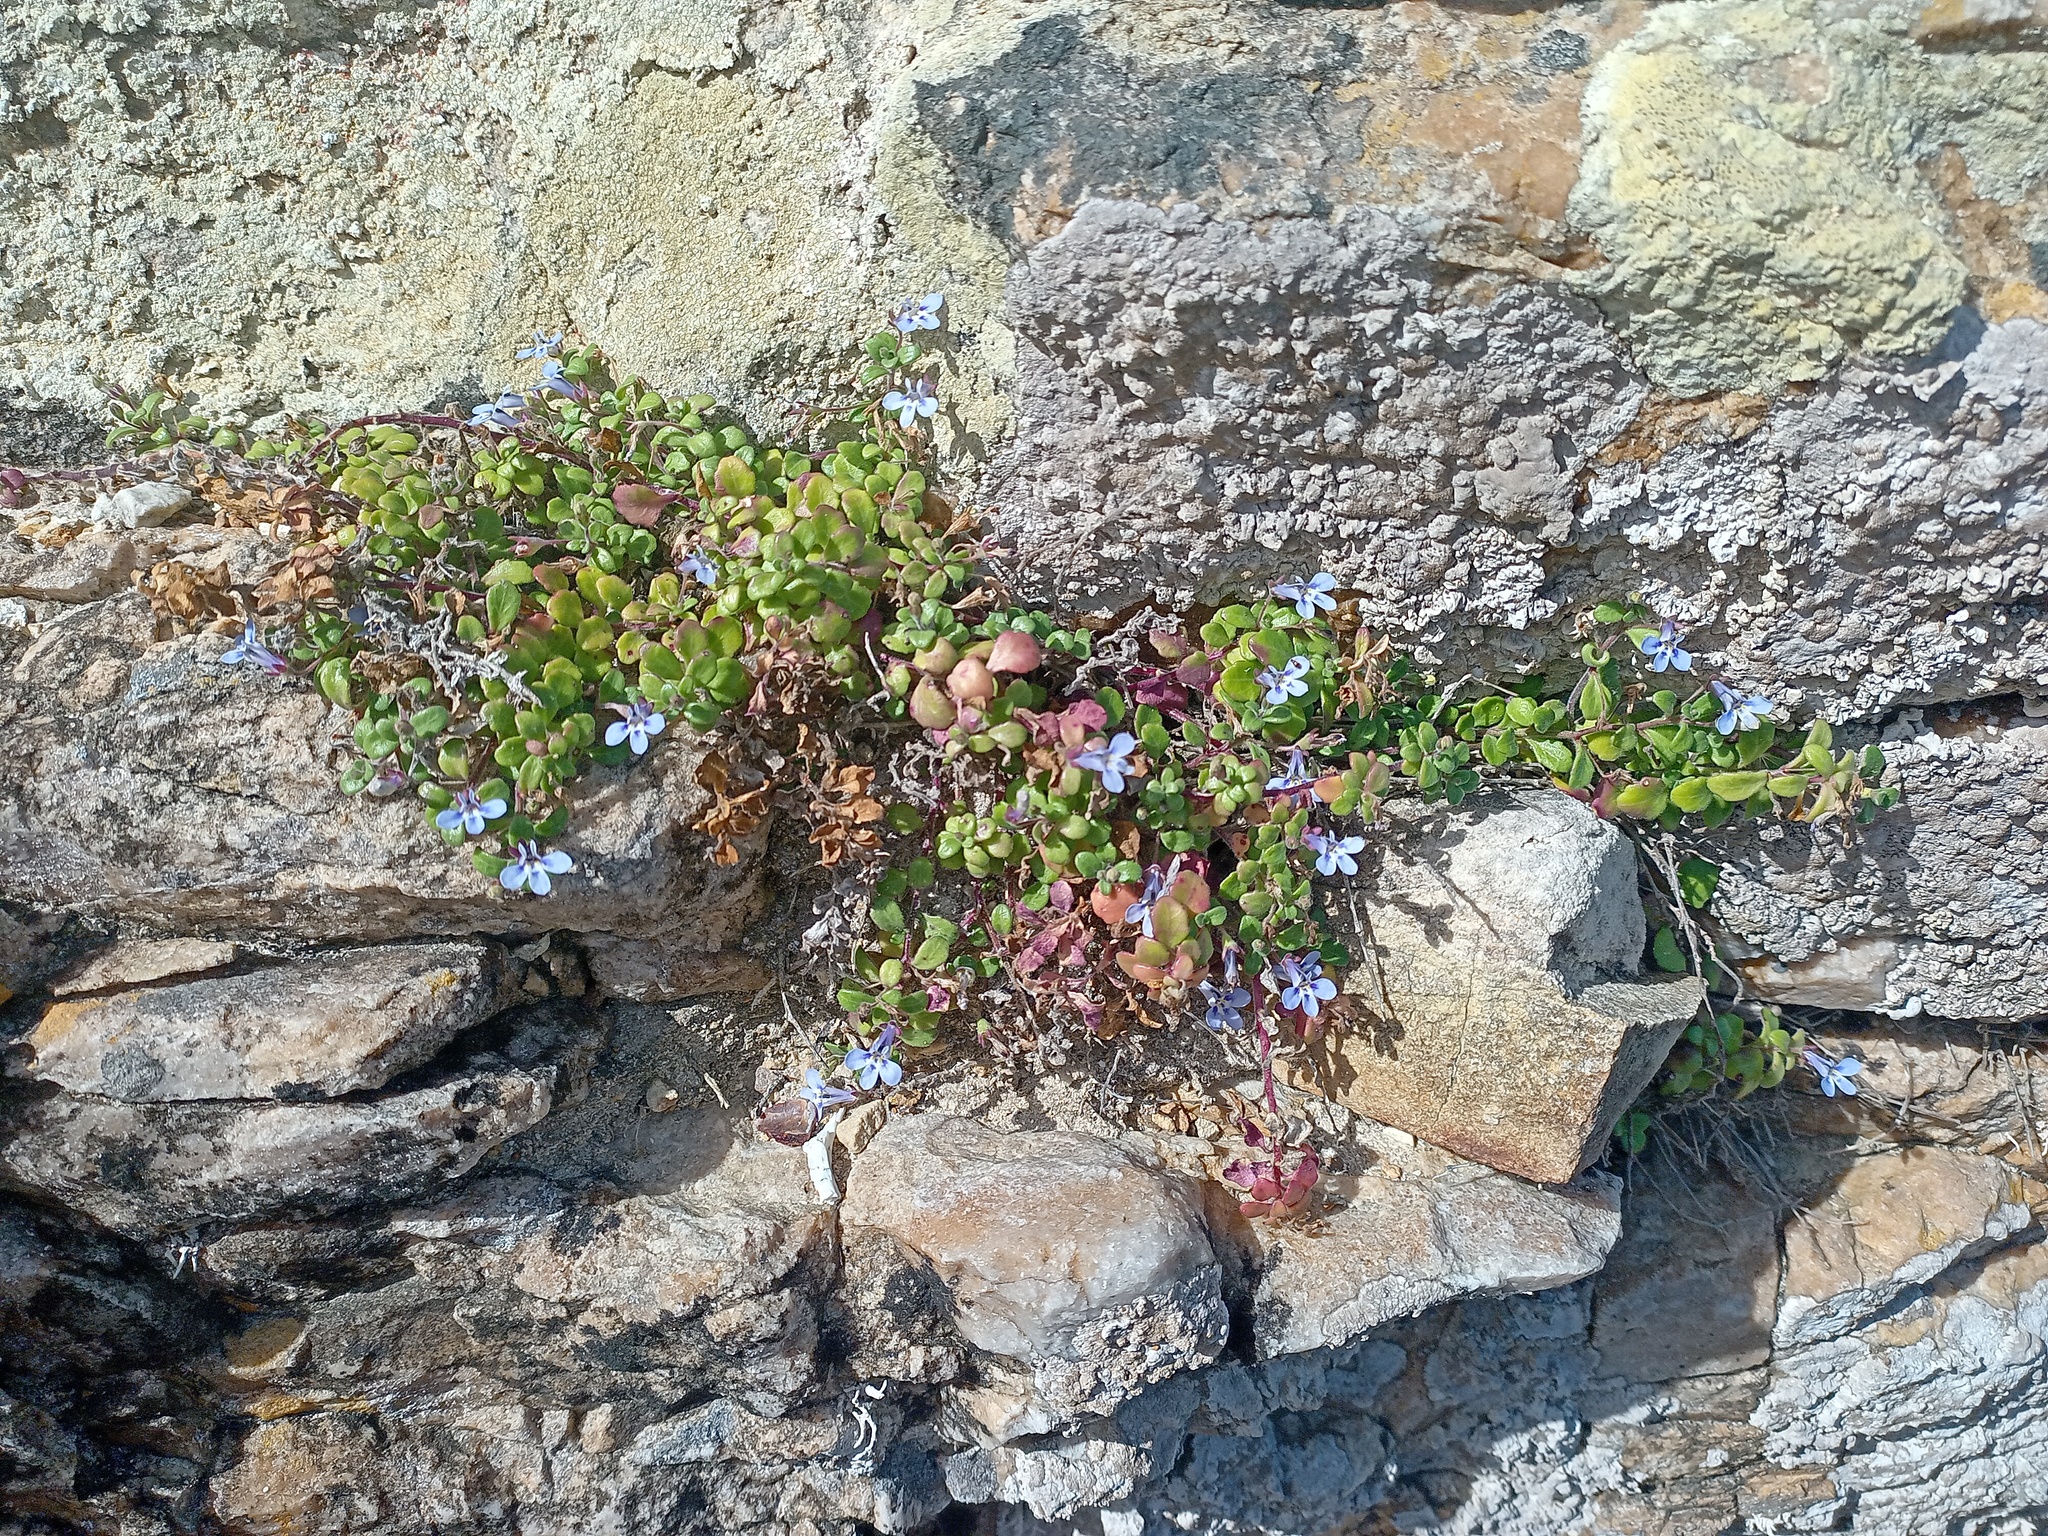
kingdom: Plantae
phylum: Tracheophyta
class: Magnoliopsida
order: Asterales
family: Campanulaceae
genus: Lobelia
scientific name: Lobelia boivinii
